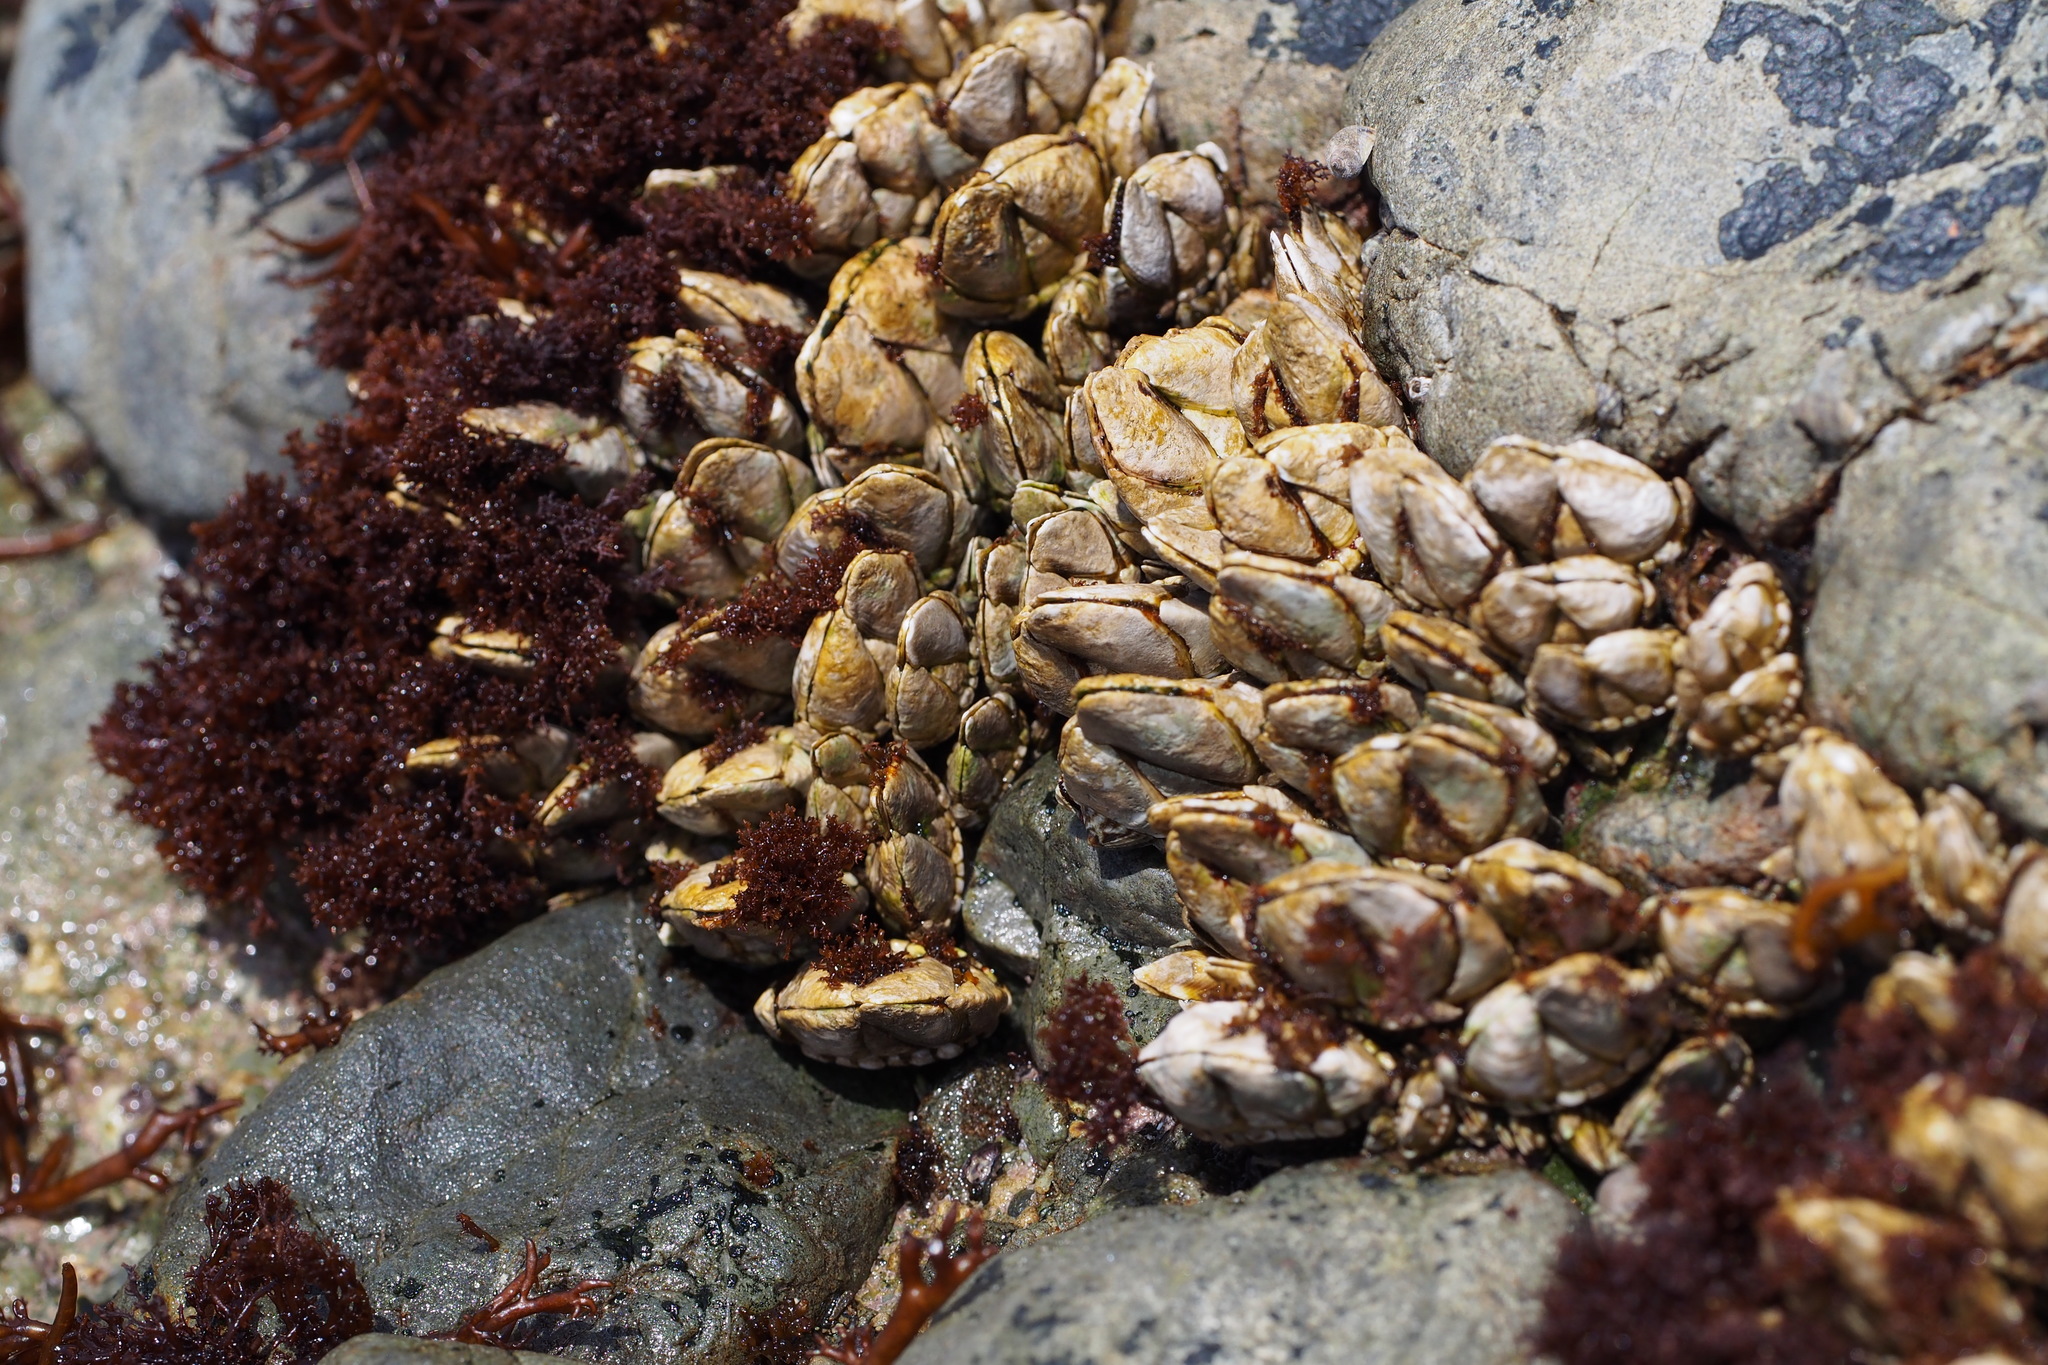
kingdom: Animalia
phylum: Arthropoda
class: Maxillopoda
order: Pedunculata
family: Pollicipedidae
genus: Capitulum
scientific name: Capitulum mitella
